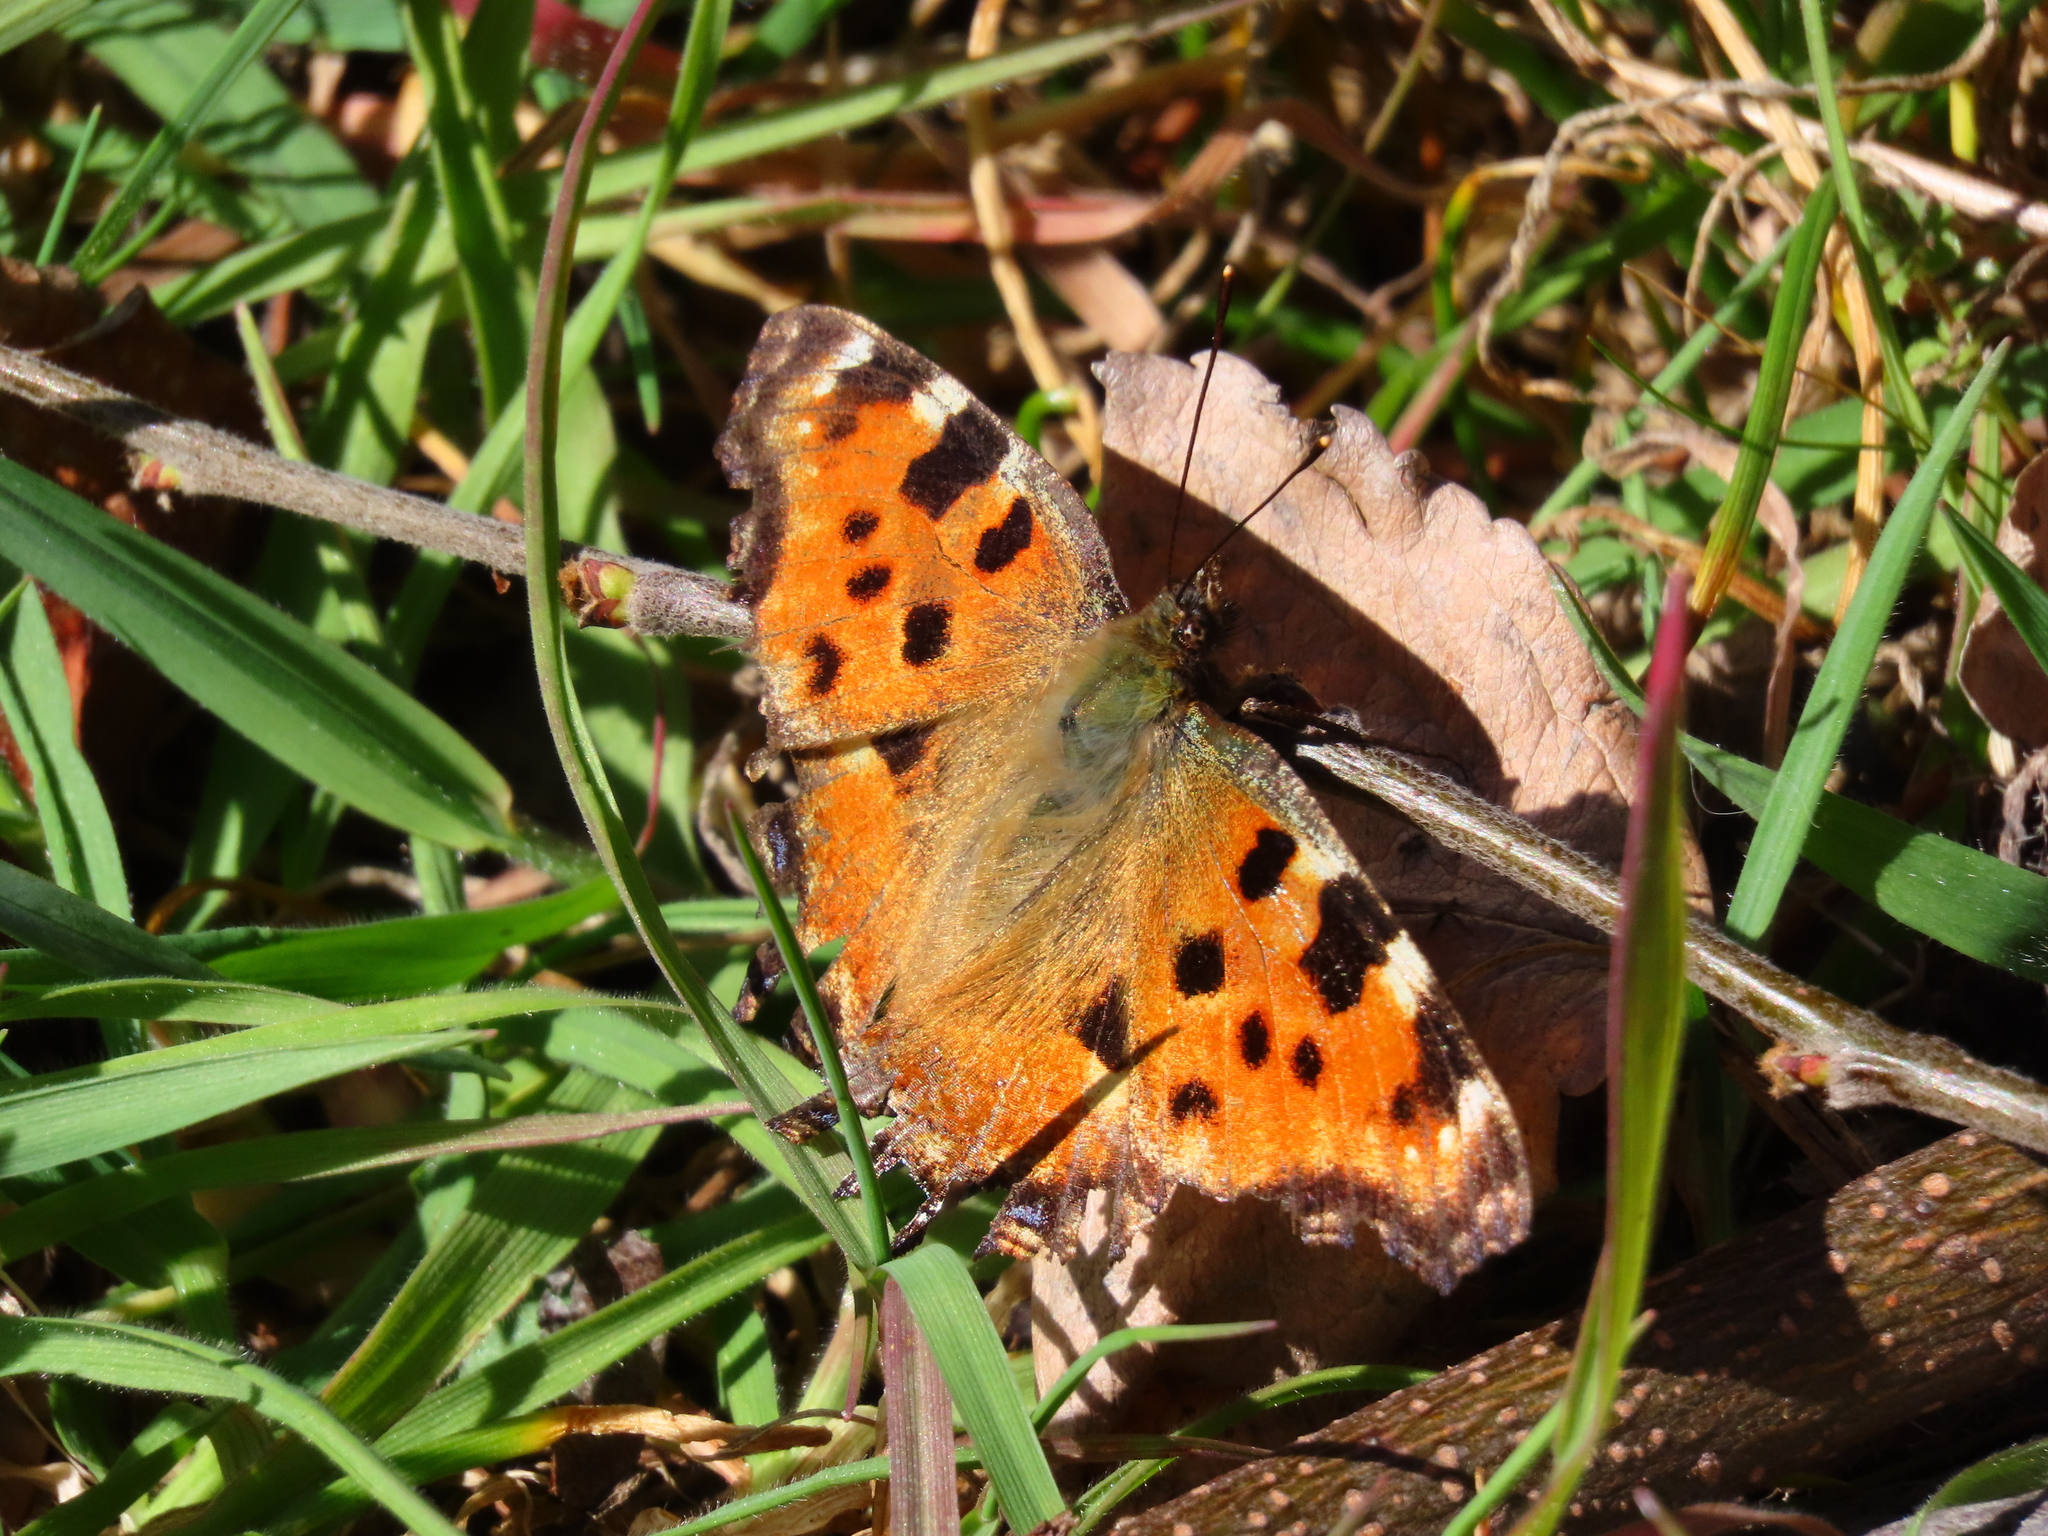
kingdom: Animalia
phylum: Arthropoda
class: Insecta
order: Lepidoptera
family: Nymphalidae
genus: Nymphalis
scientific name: Nymphalis polychloros
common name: Large tortoiseshell
